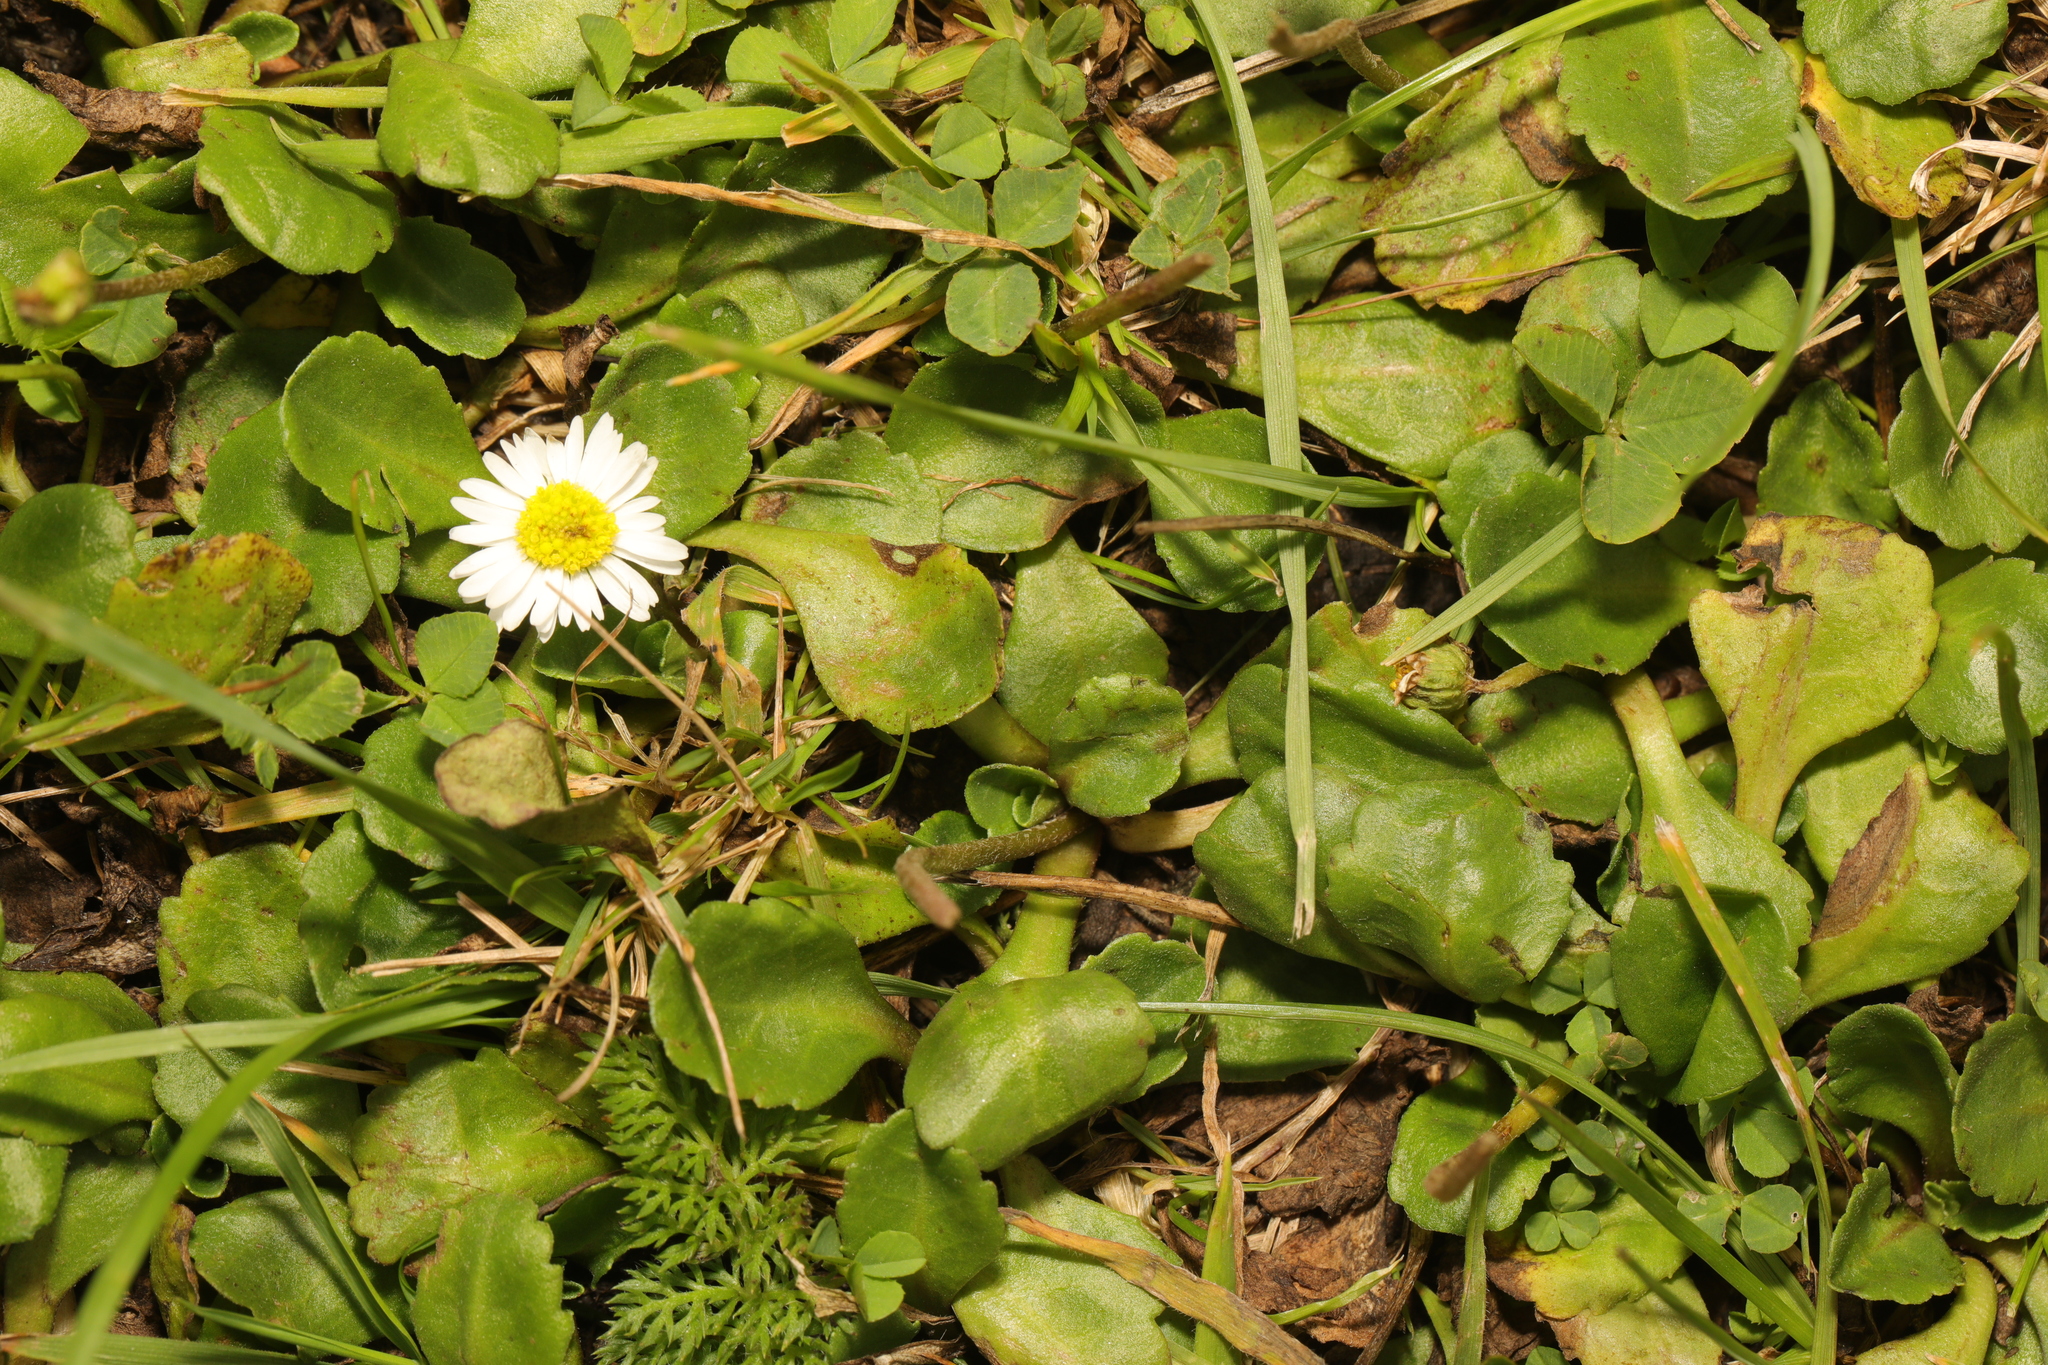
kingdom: Plantae
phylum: Tracheophyta
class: Magnoliopsida
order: Asterales
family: Asteraceae
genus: Bellis
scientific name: Bellis perennis
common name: Lawndaisy
